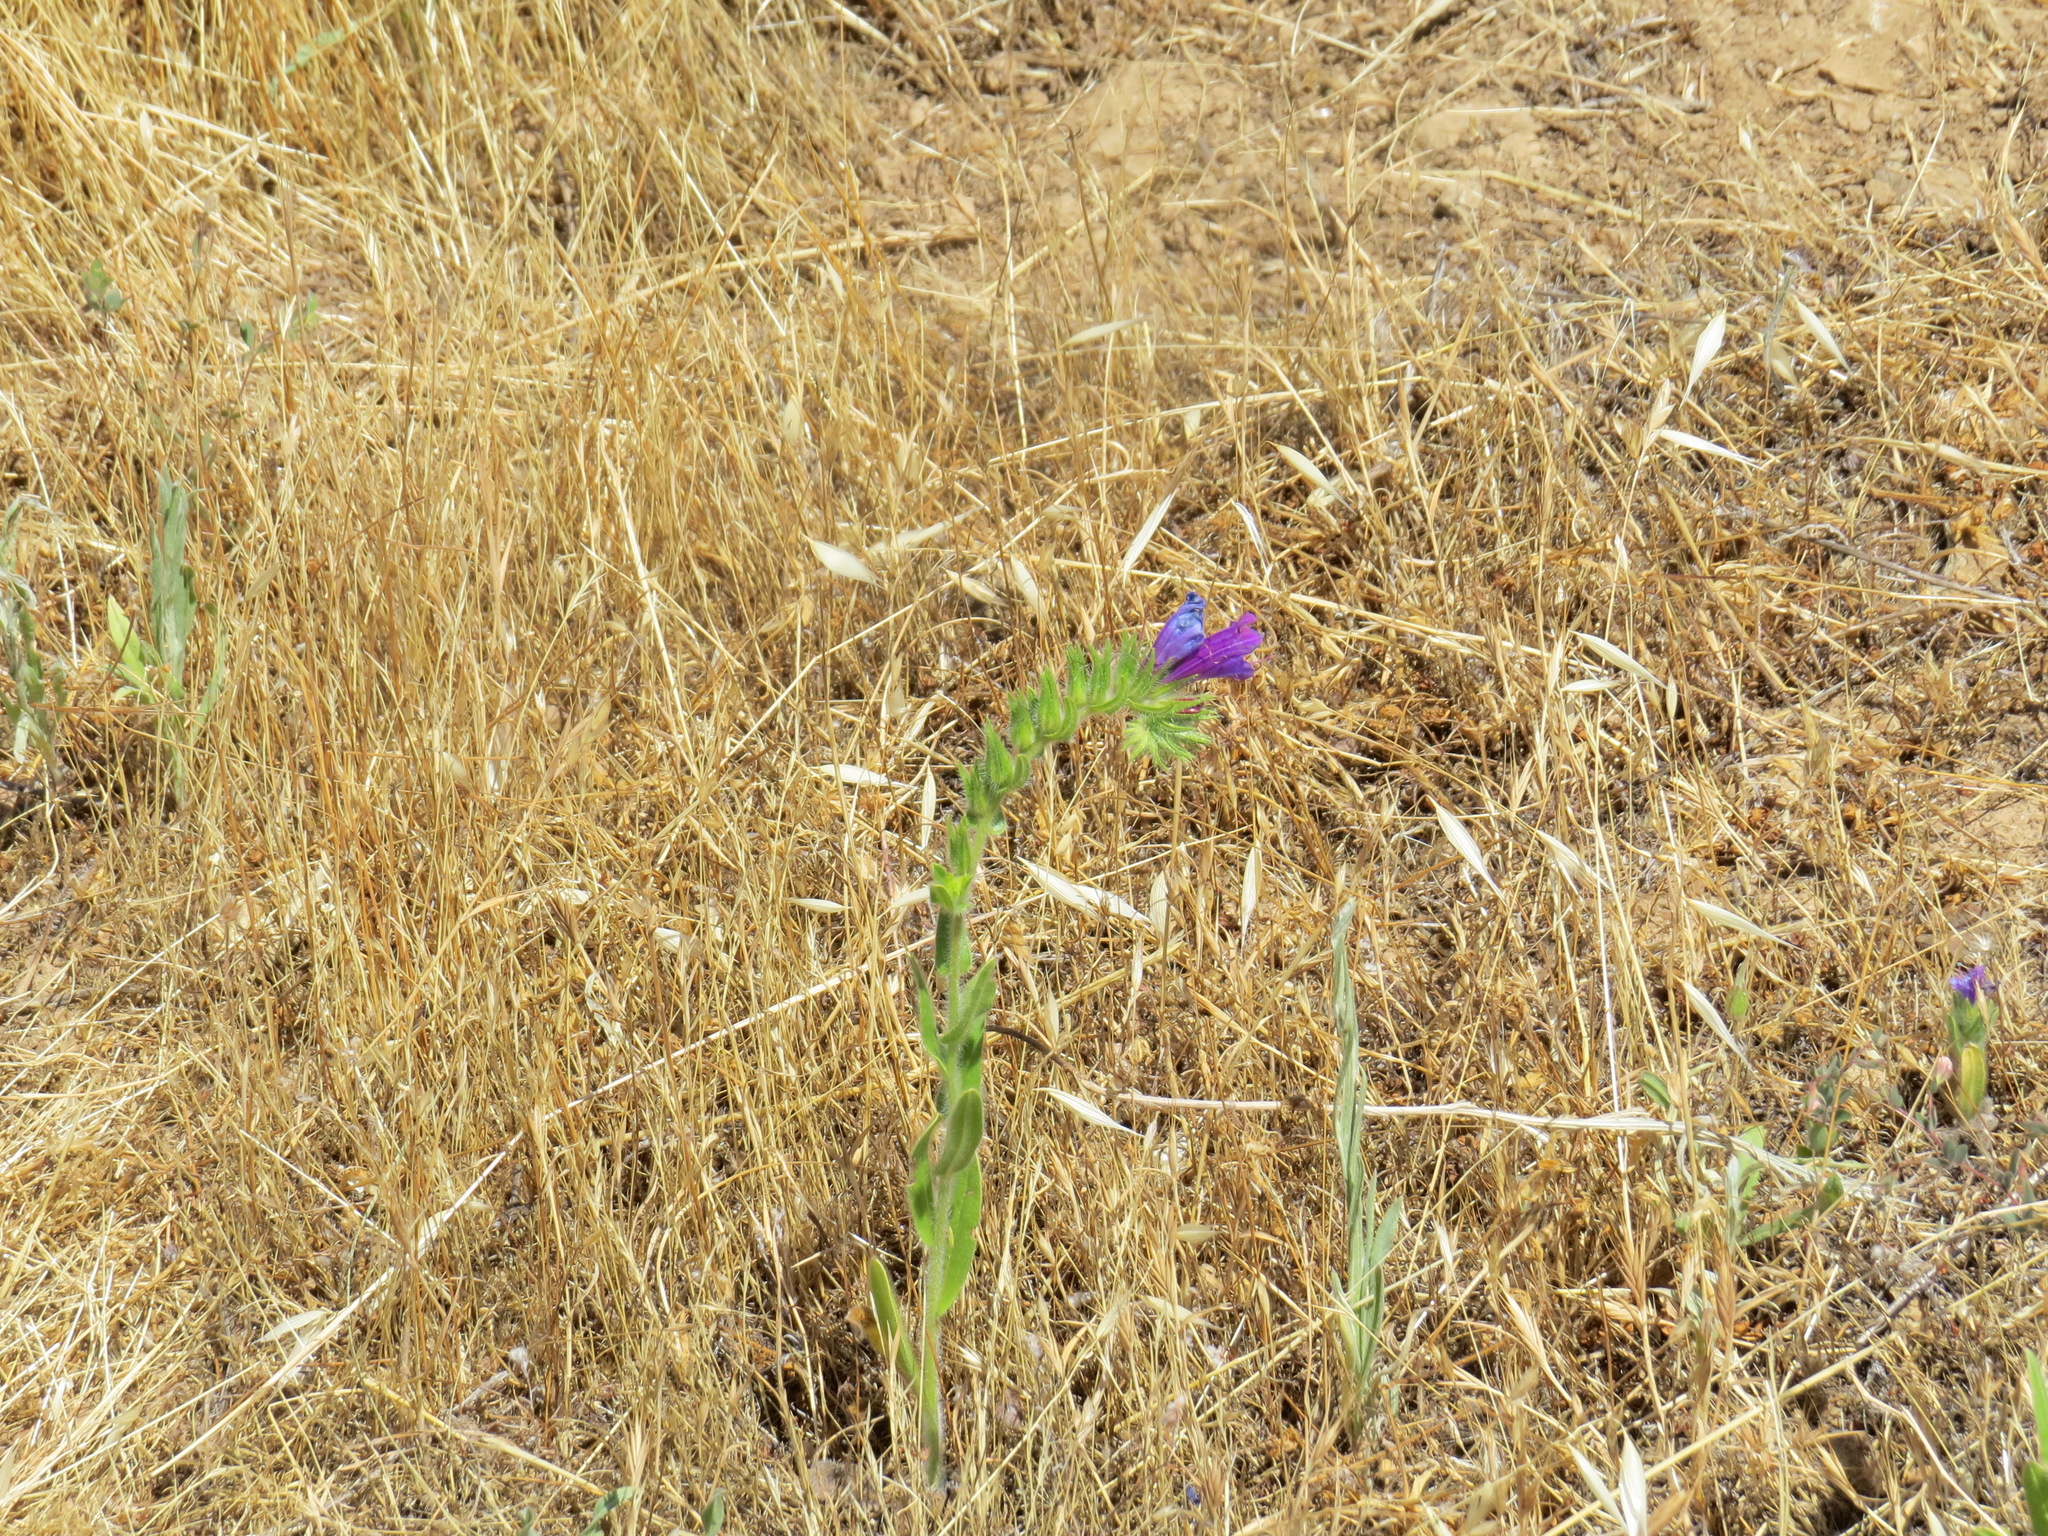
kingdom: Plantae
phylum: Tracheophyta
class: Magnoliopsida
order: Boraginales
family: Boraginaceae
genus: Echium
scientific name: Echium plantagineum
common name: Purple viper's-bugloss
